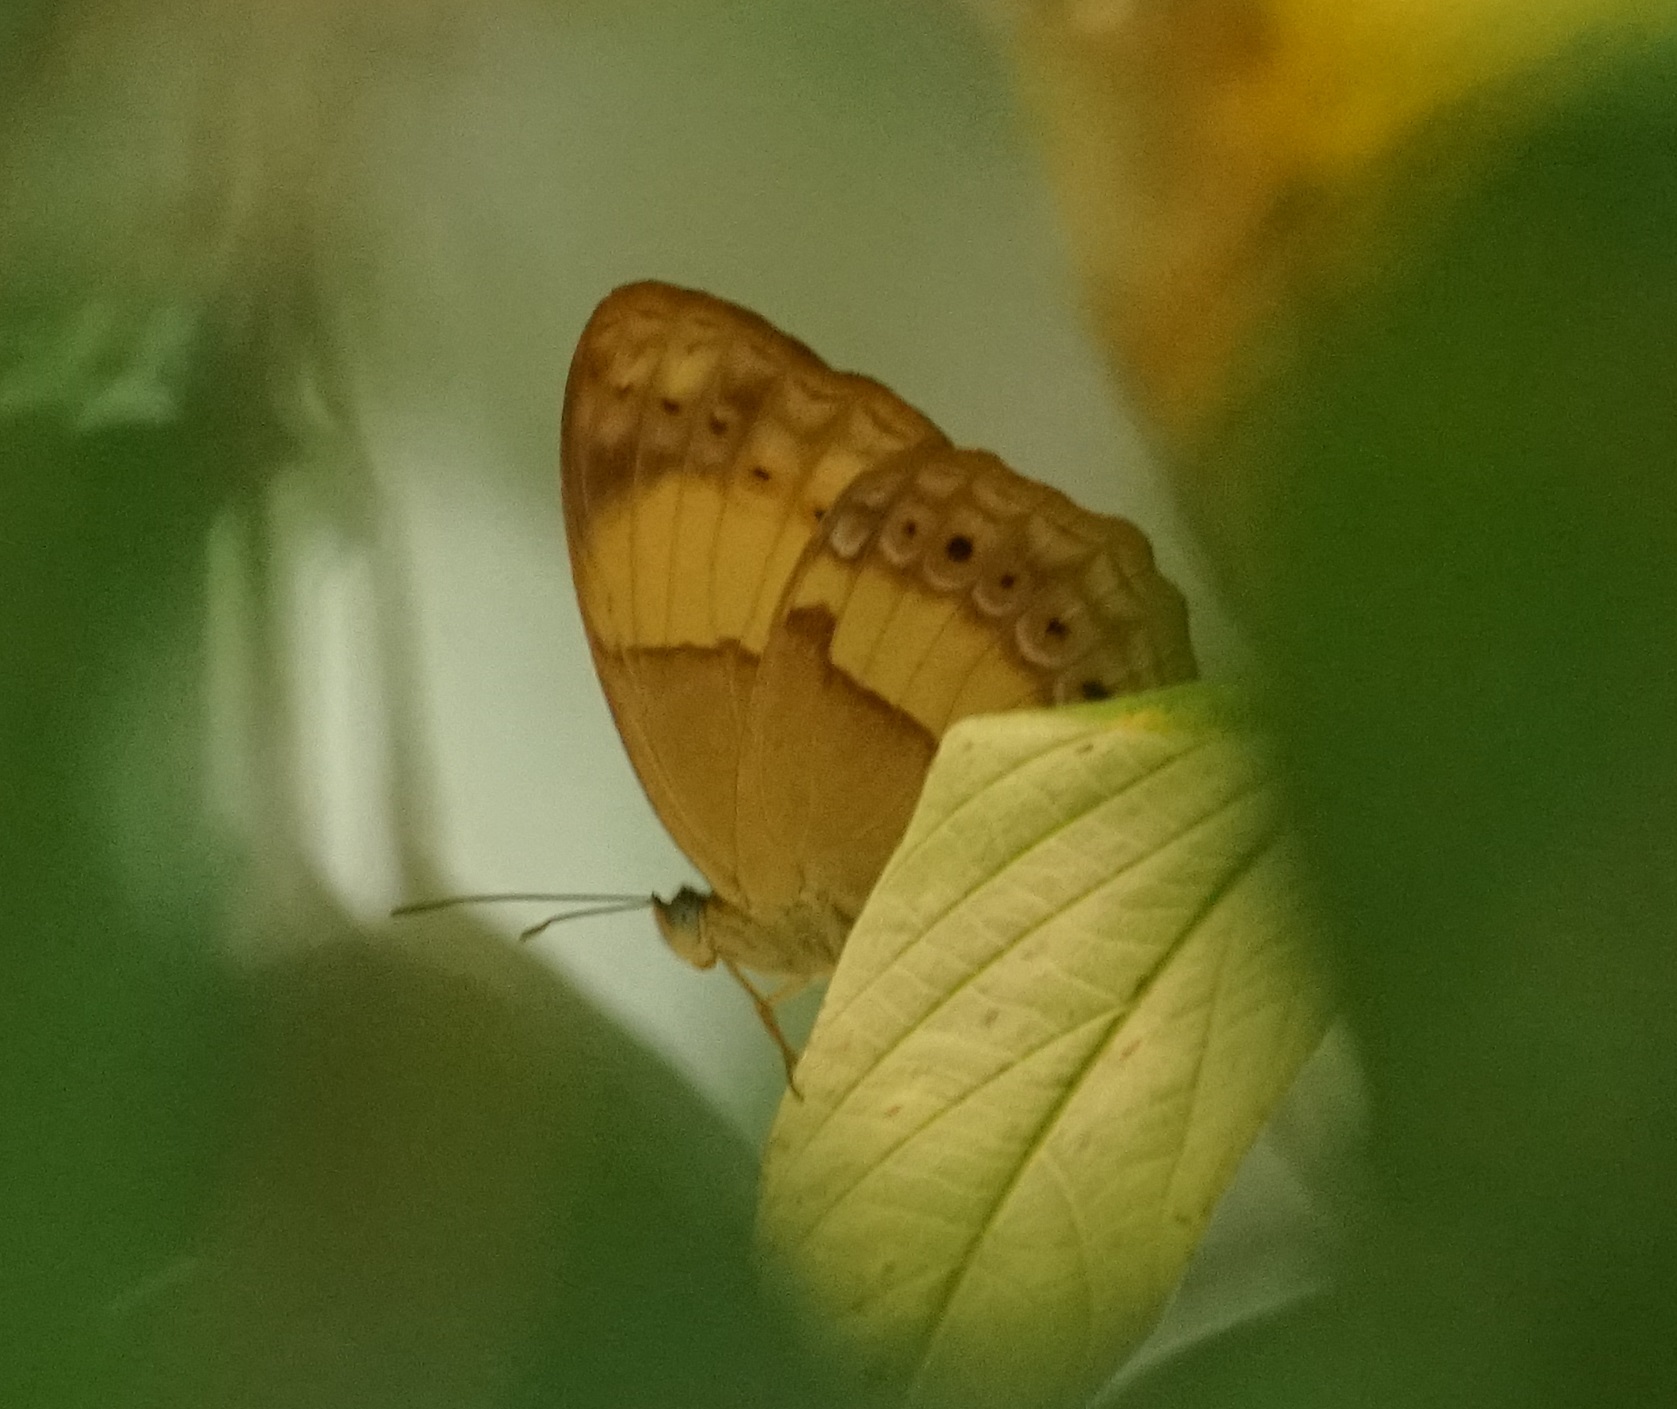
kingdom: Animalia
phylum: Arthropoda
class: Insecta
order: Lepidoptera
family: Nymphalidae
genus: Cupha
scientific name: Cupha prosope
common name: Bordered rustic
